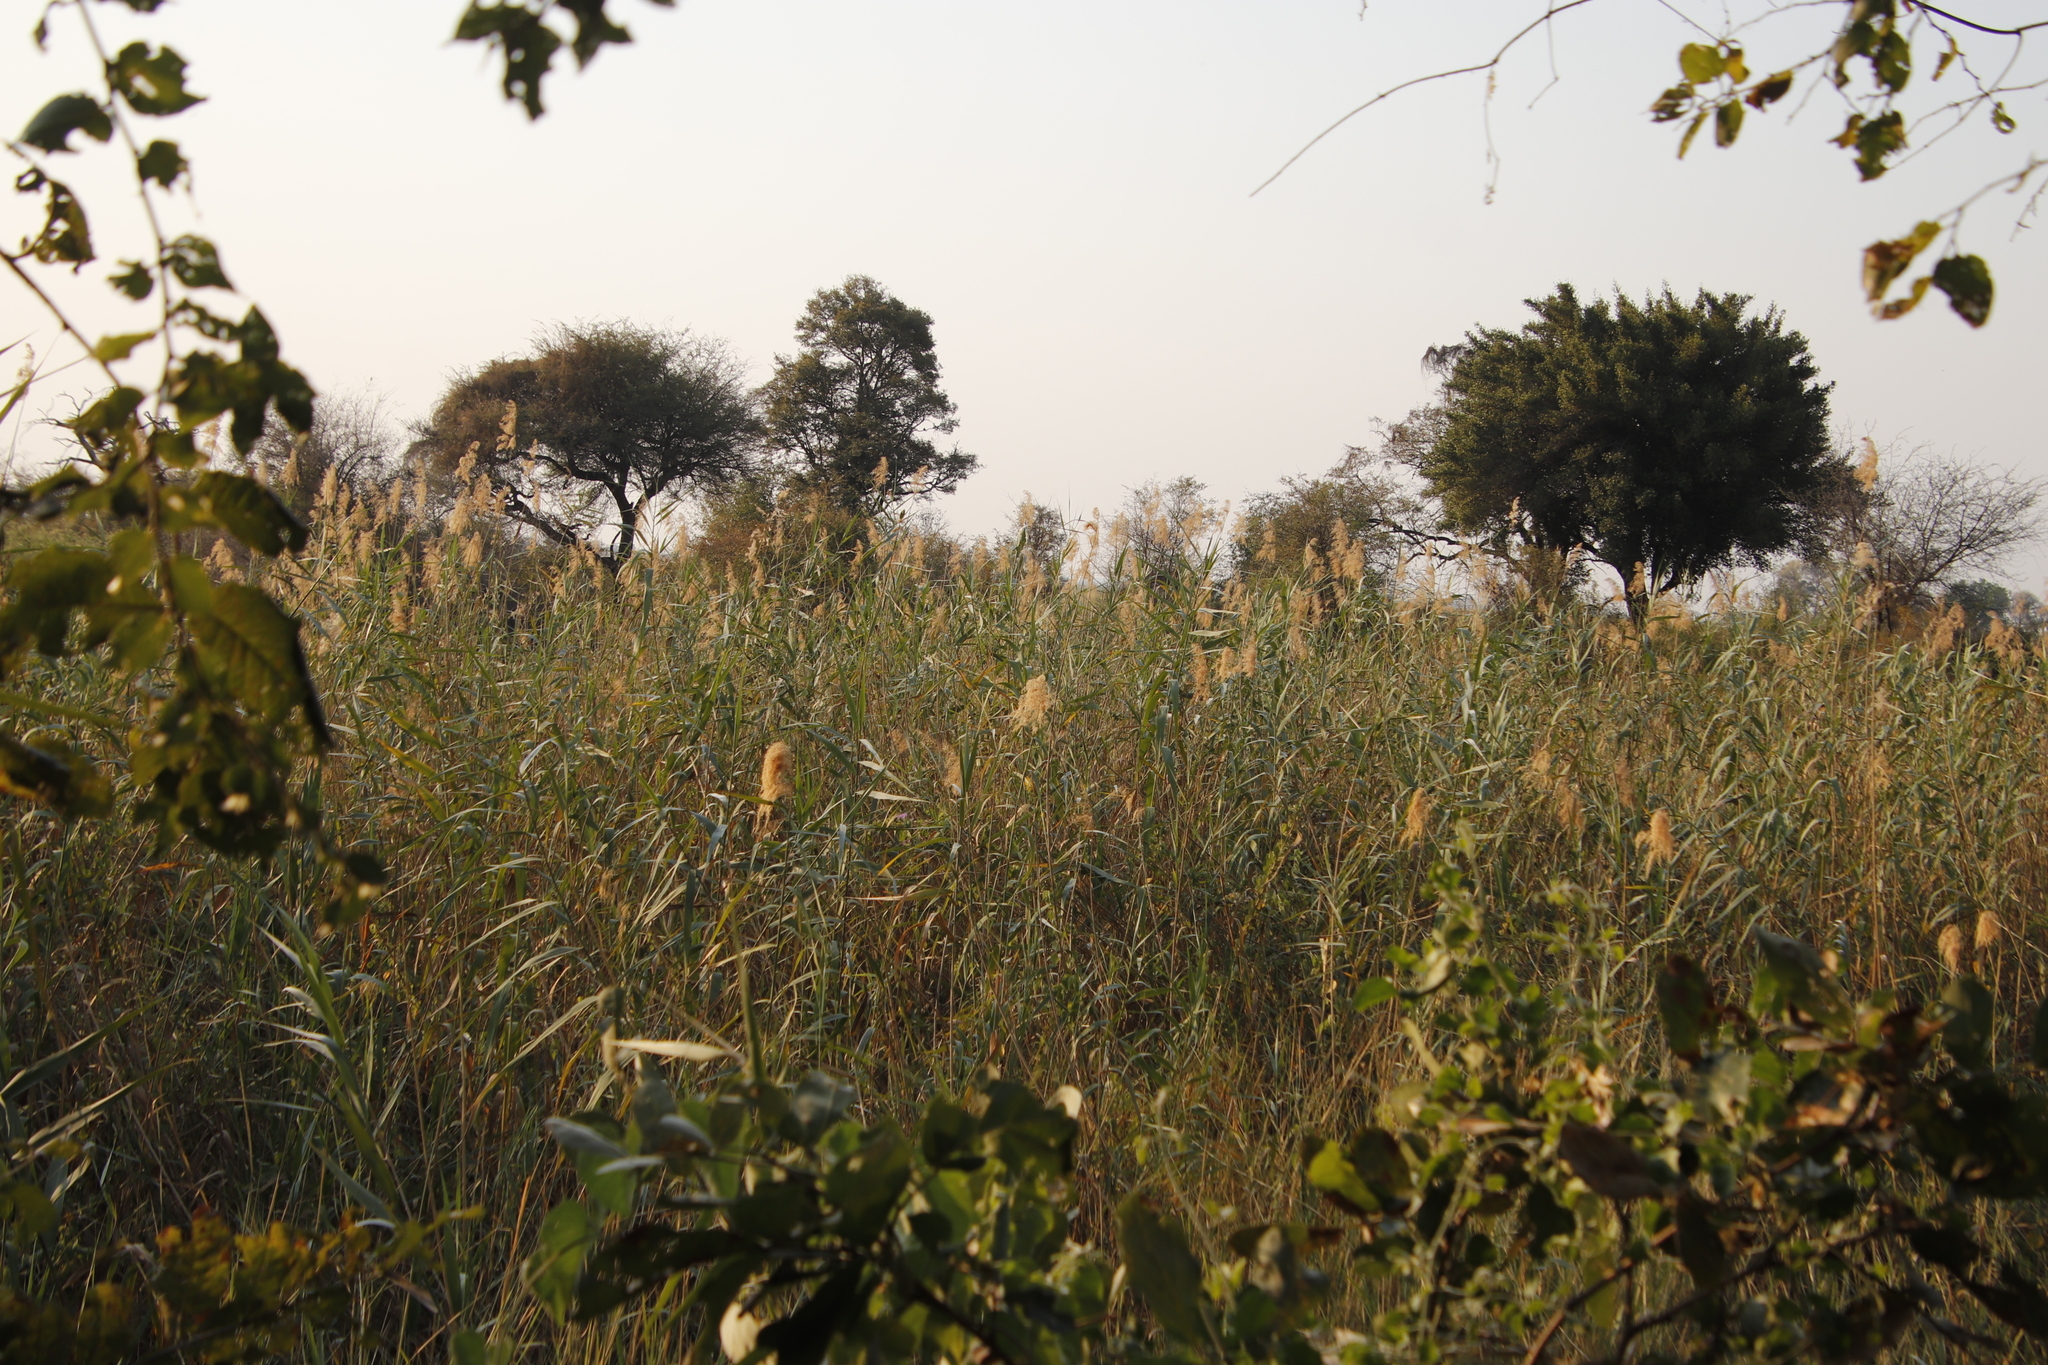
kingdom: Plantae
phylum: Tracheophyta
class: Liliopsida
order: Poales
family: Poaceae
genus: Phragmites
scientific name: Phragmites australis
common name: Common reed
